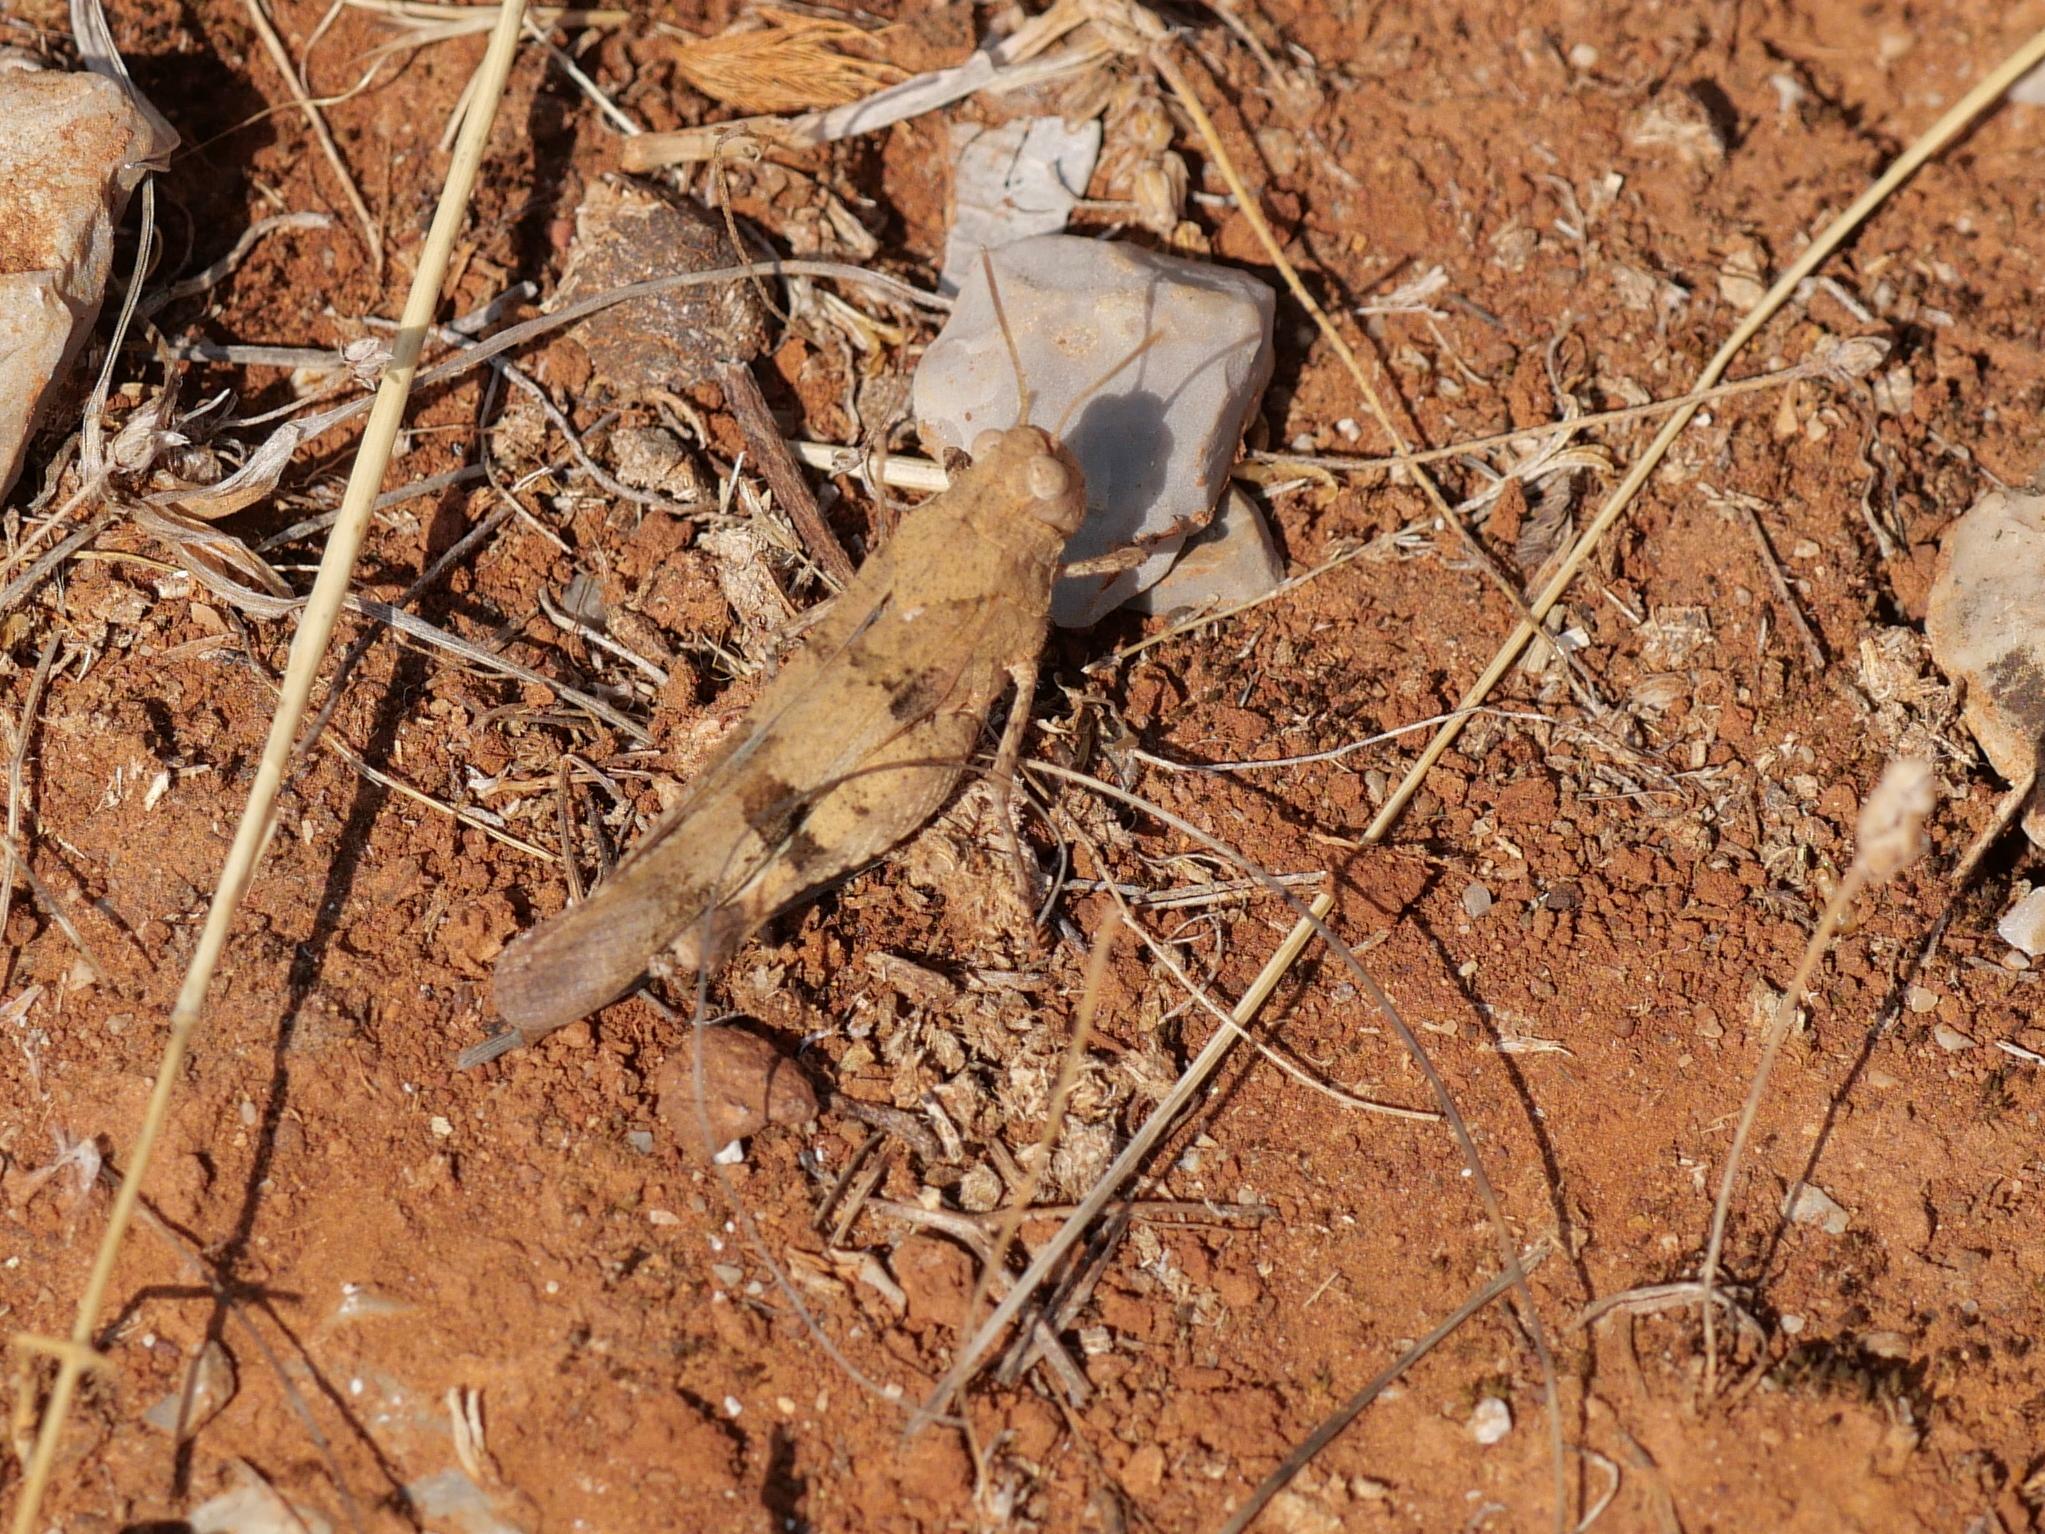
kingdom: Animalia
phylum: Arthropoda
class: Insecta
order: Orthoptera
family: Acrididae
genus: Oedipoda
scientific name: Oedipoda caerulescens
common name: Blue-winged grasshopper
